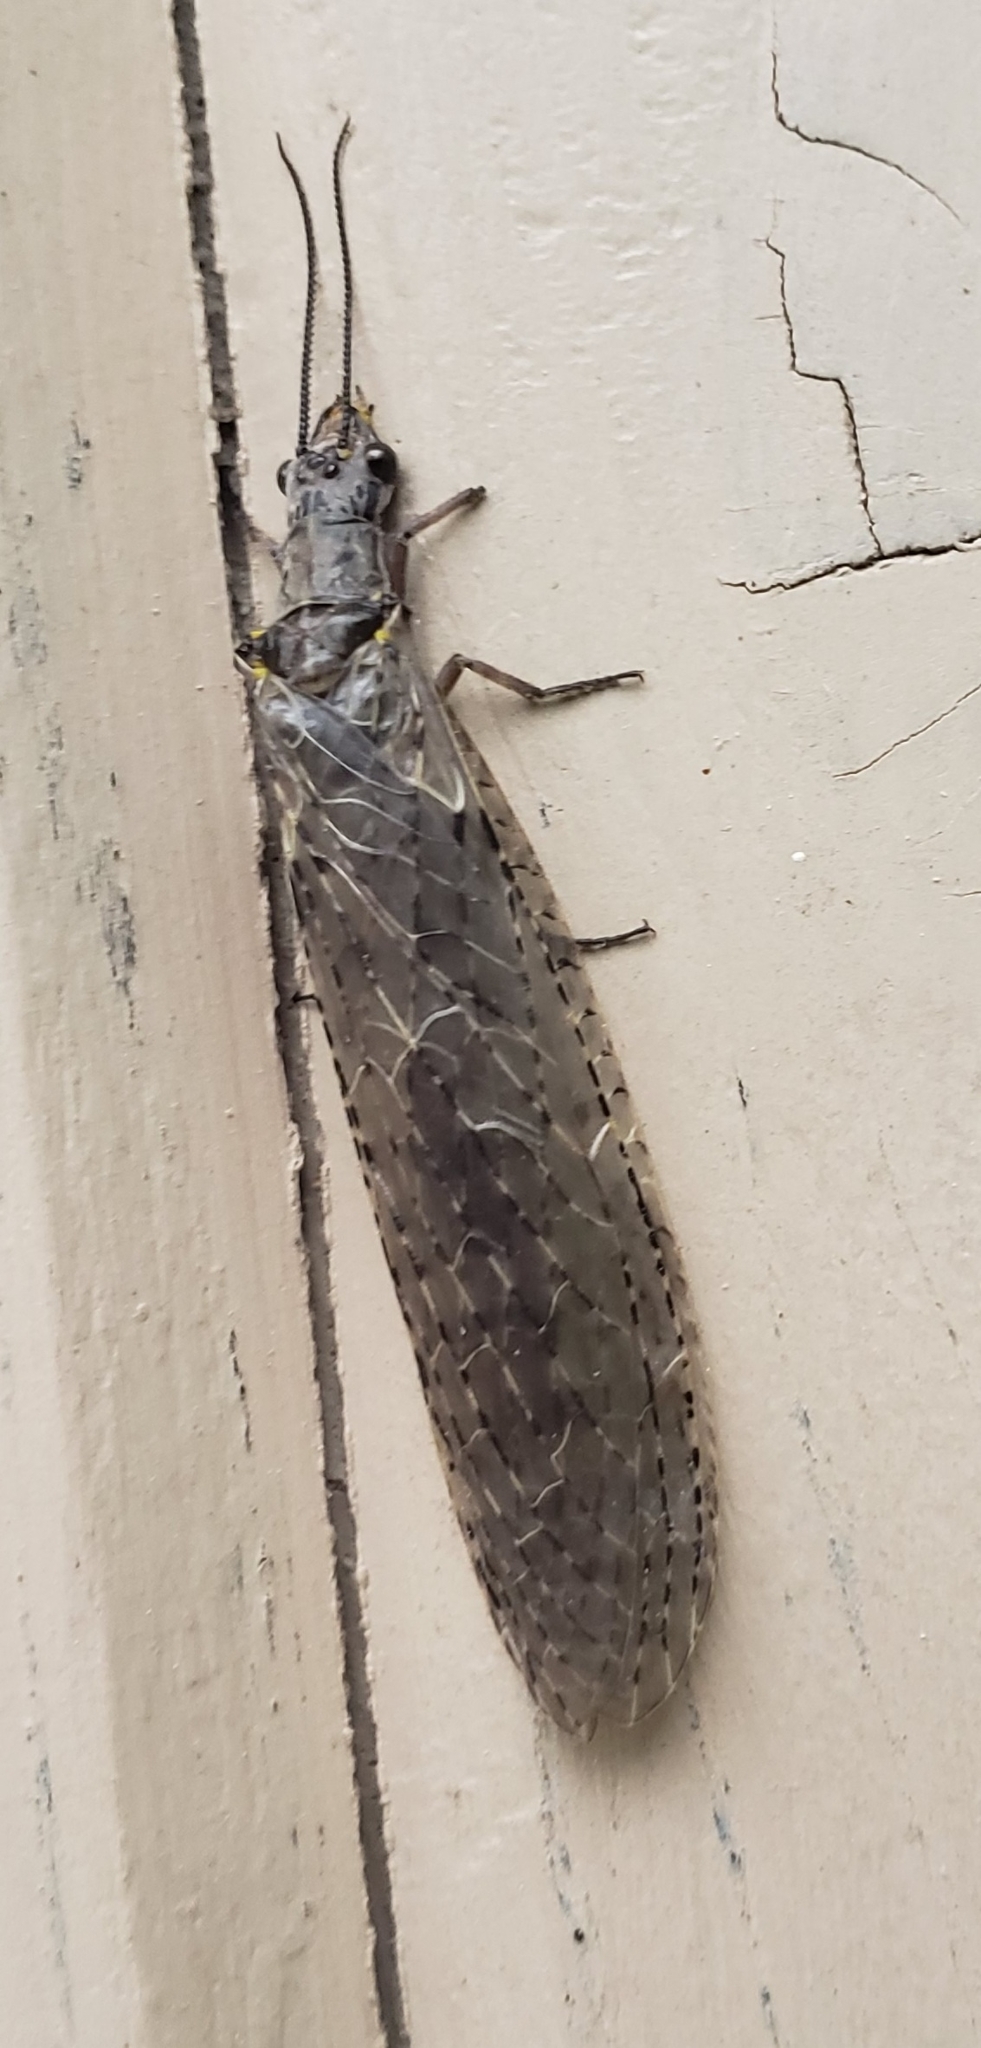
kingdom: Animalia
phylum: Arthropoda
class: Insecta
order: Megaloptera
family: Corydalidae
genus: Chauliodes
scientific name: Chauliodes rastricornis
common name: Spring fishfly
